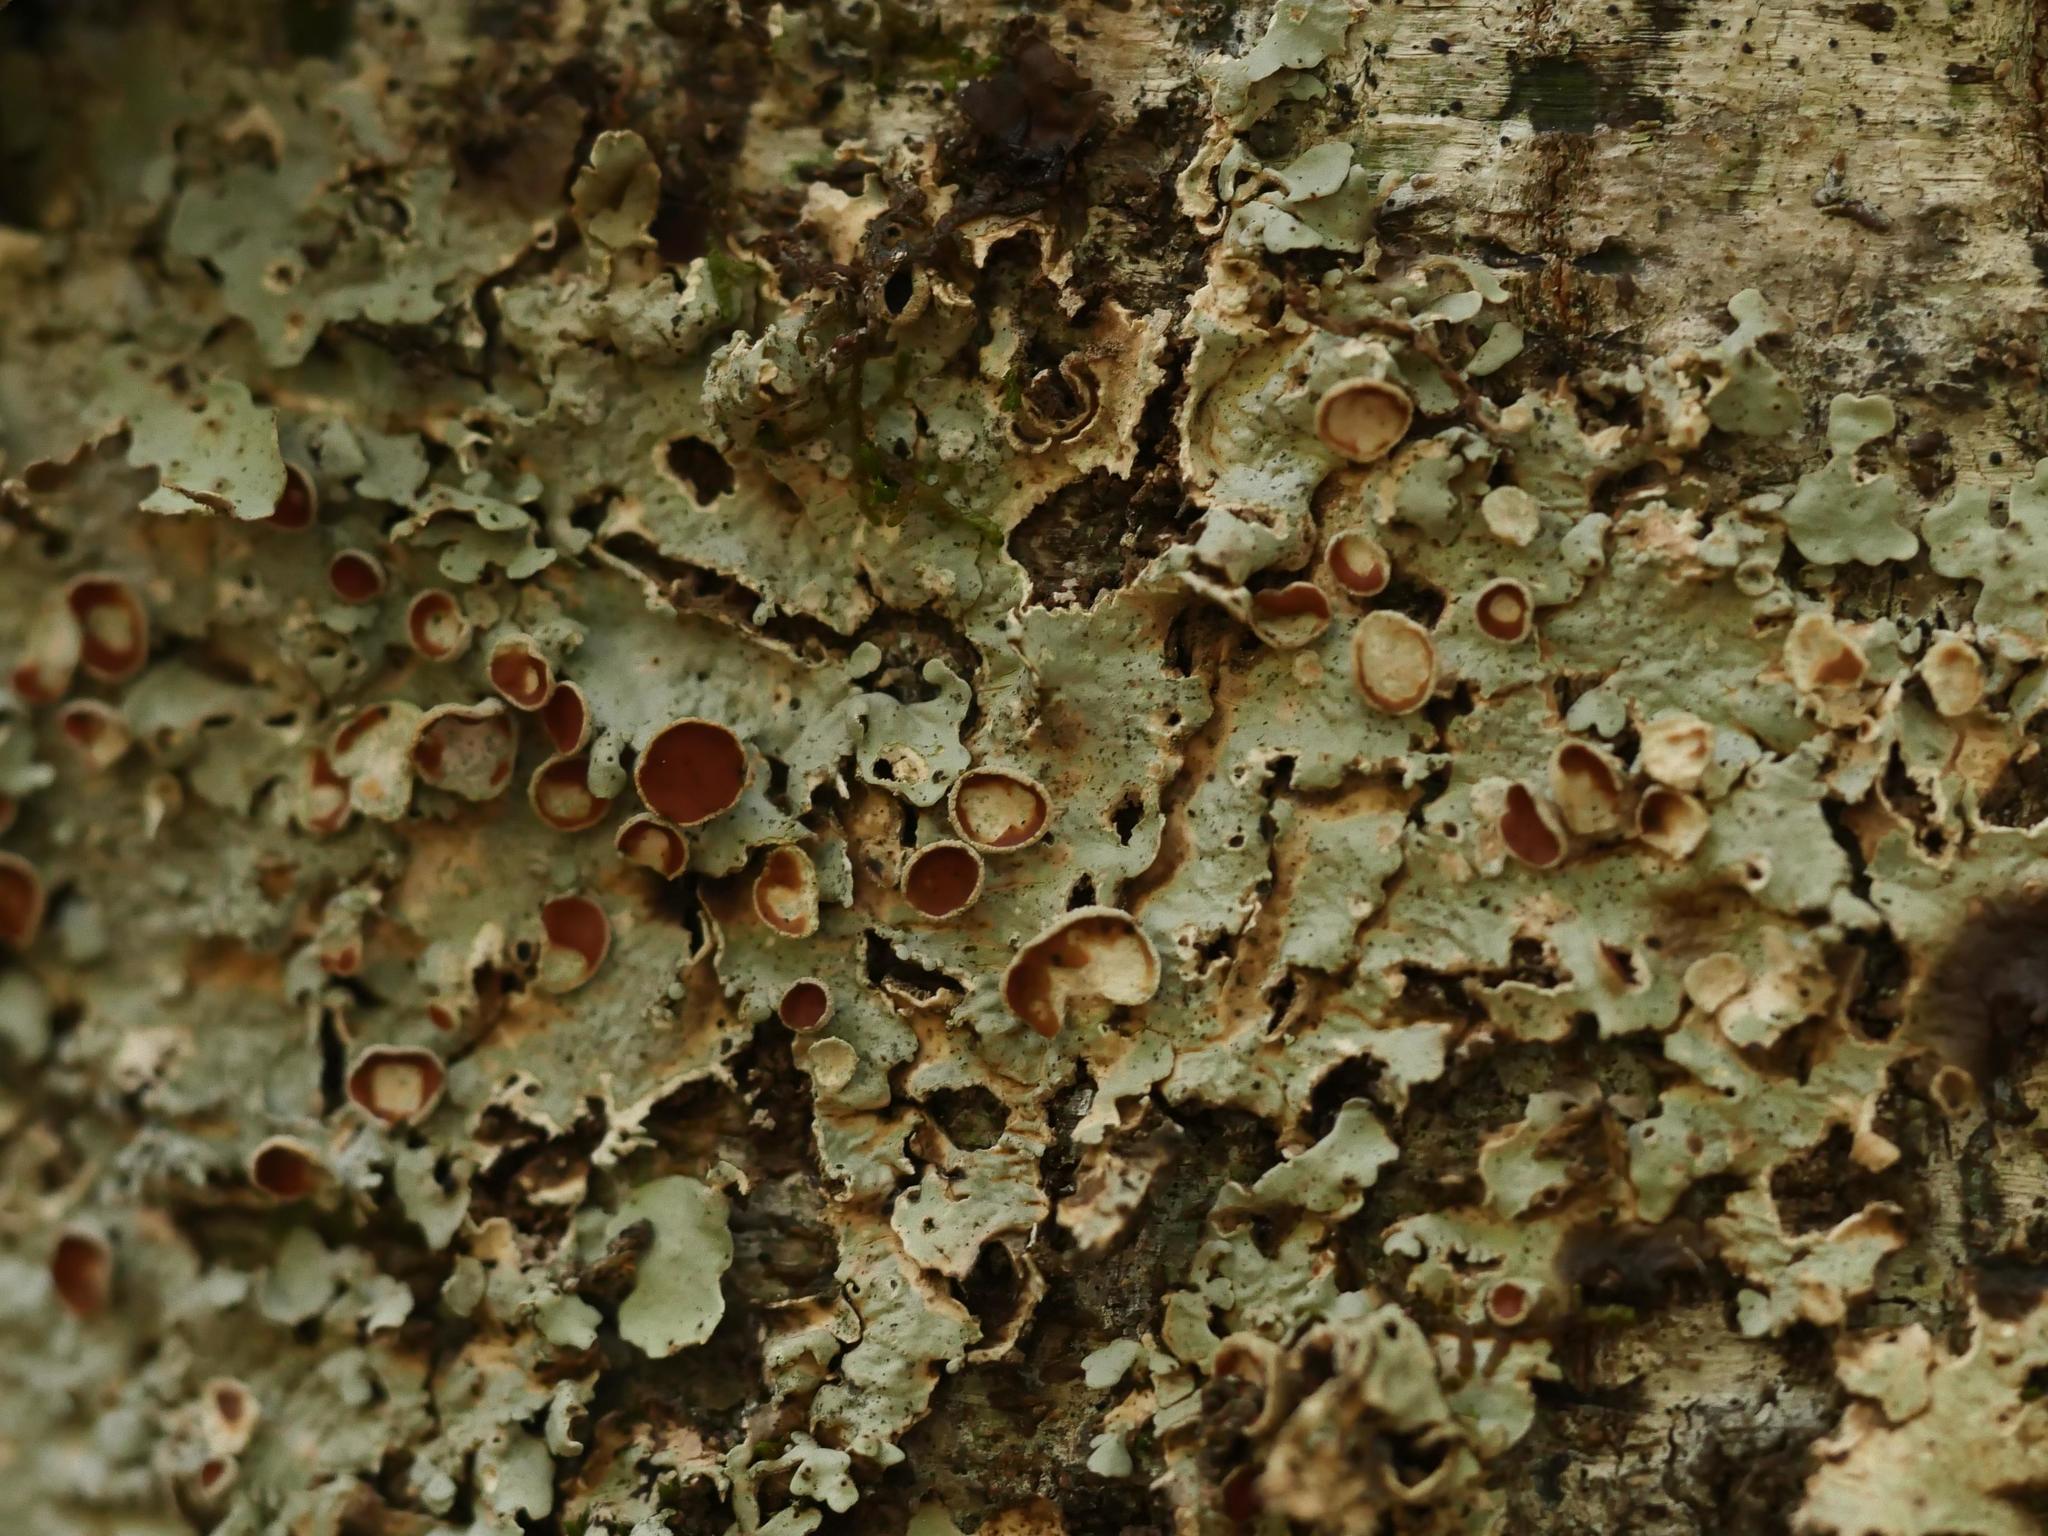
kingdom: Fungi
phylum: Ascomycota
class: Lecanoromycetes
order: Peltigerales
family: Lobariaceae
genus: Ricasolia
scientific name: Ricasolia quercizans
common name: Smooth lungwort
